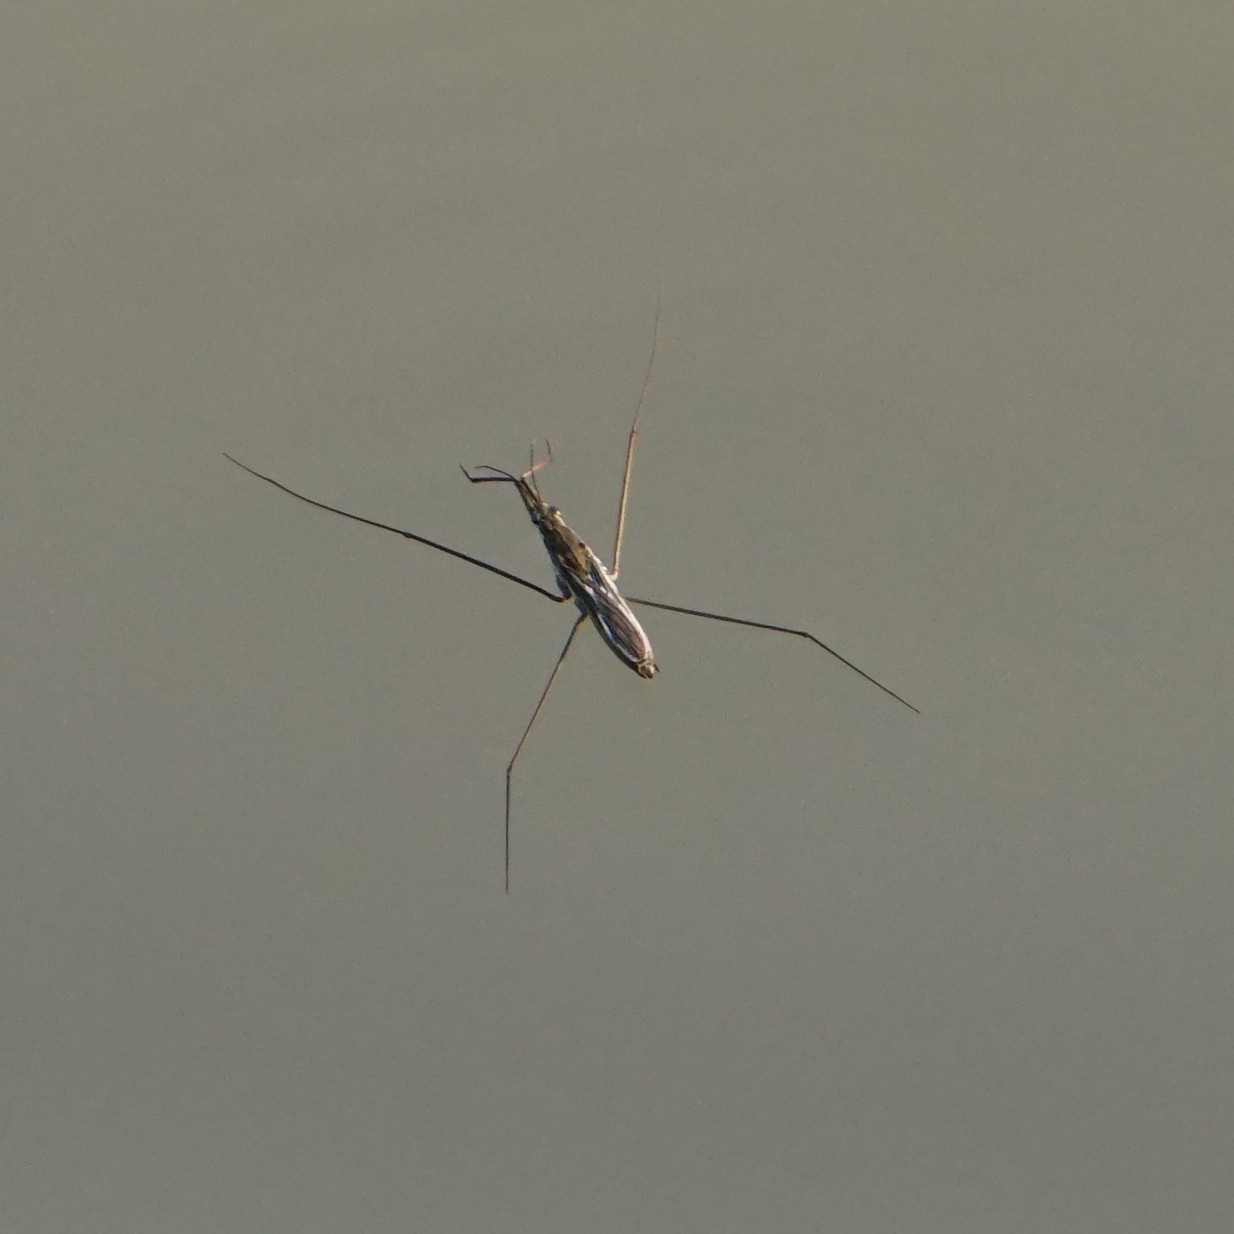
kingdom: Animalia
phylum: Arthropoda
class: Insecta
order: Hemiptera
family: Gerridae
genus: Aquarius
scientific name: Aquarius paludum
